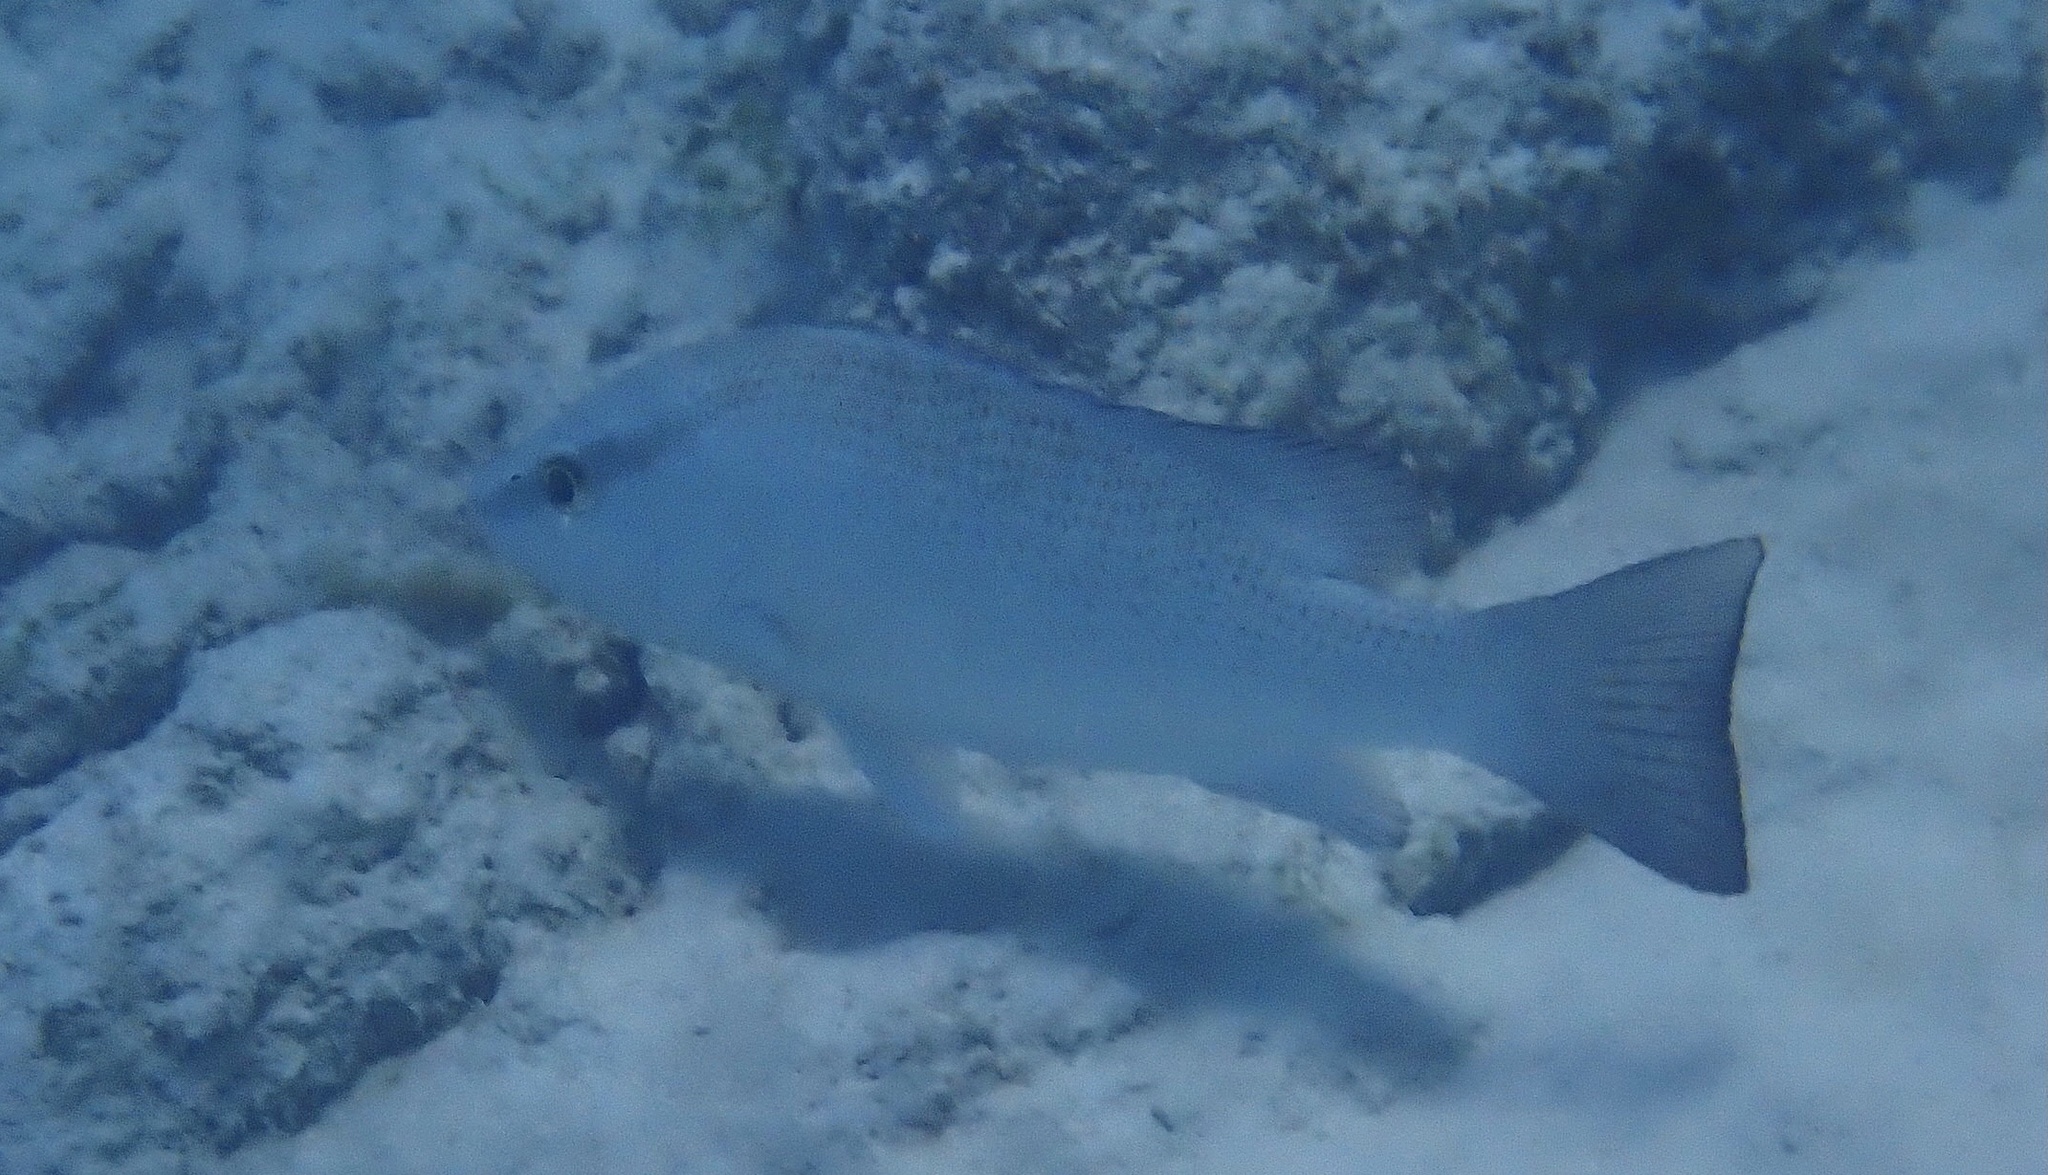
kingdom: Animalia
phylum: Chordata
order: Perciformes
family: Lutjanidae
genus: Lutjanus
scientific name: Lutjanus griseus
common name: Gray snapper
